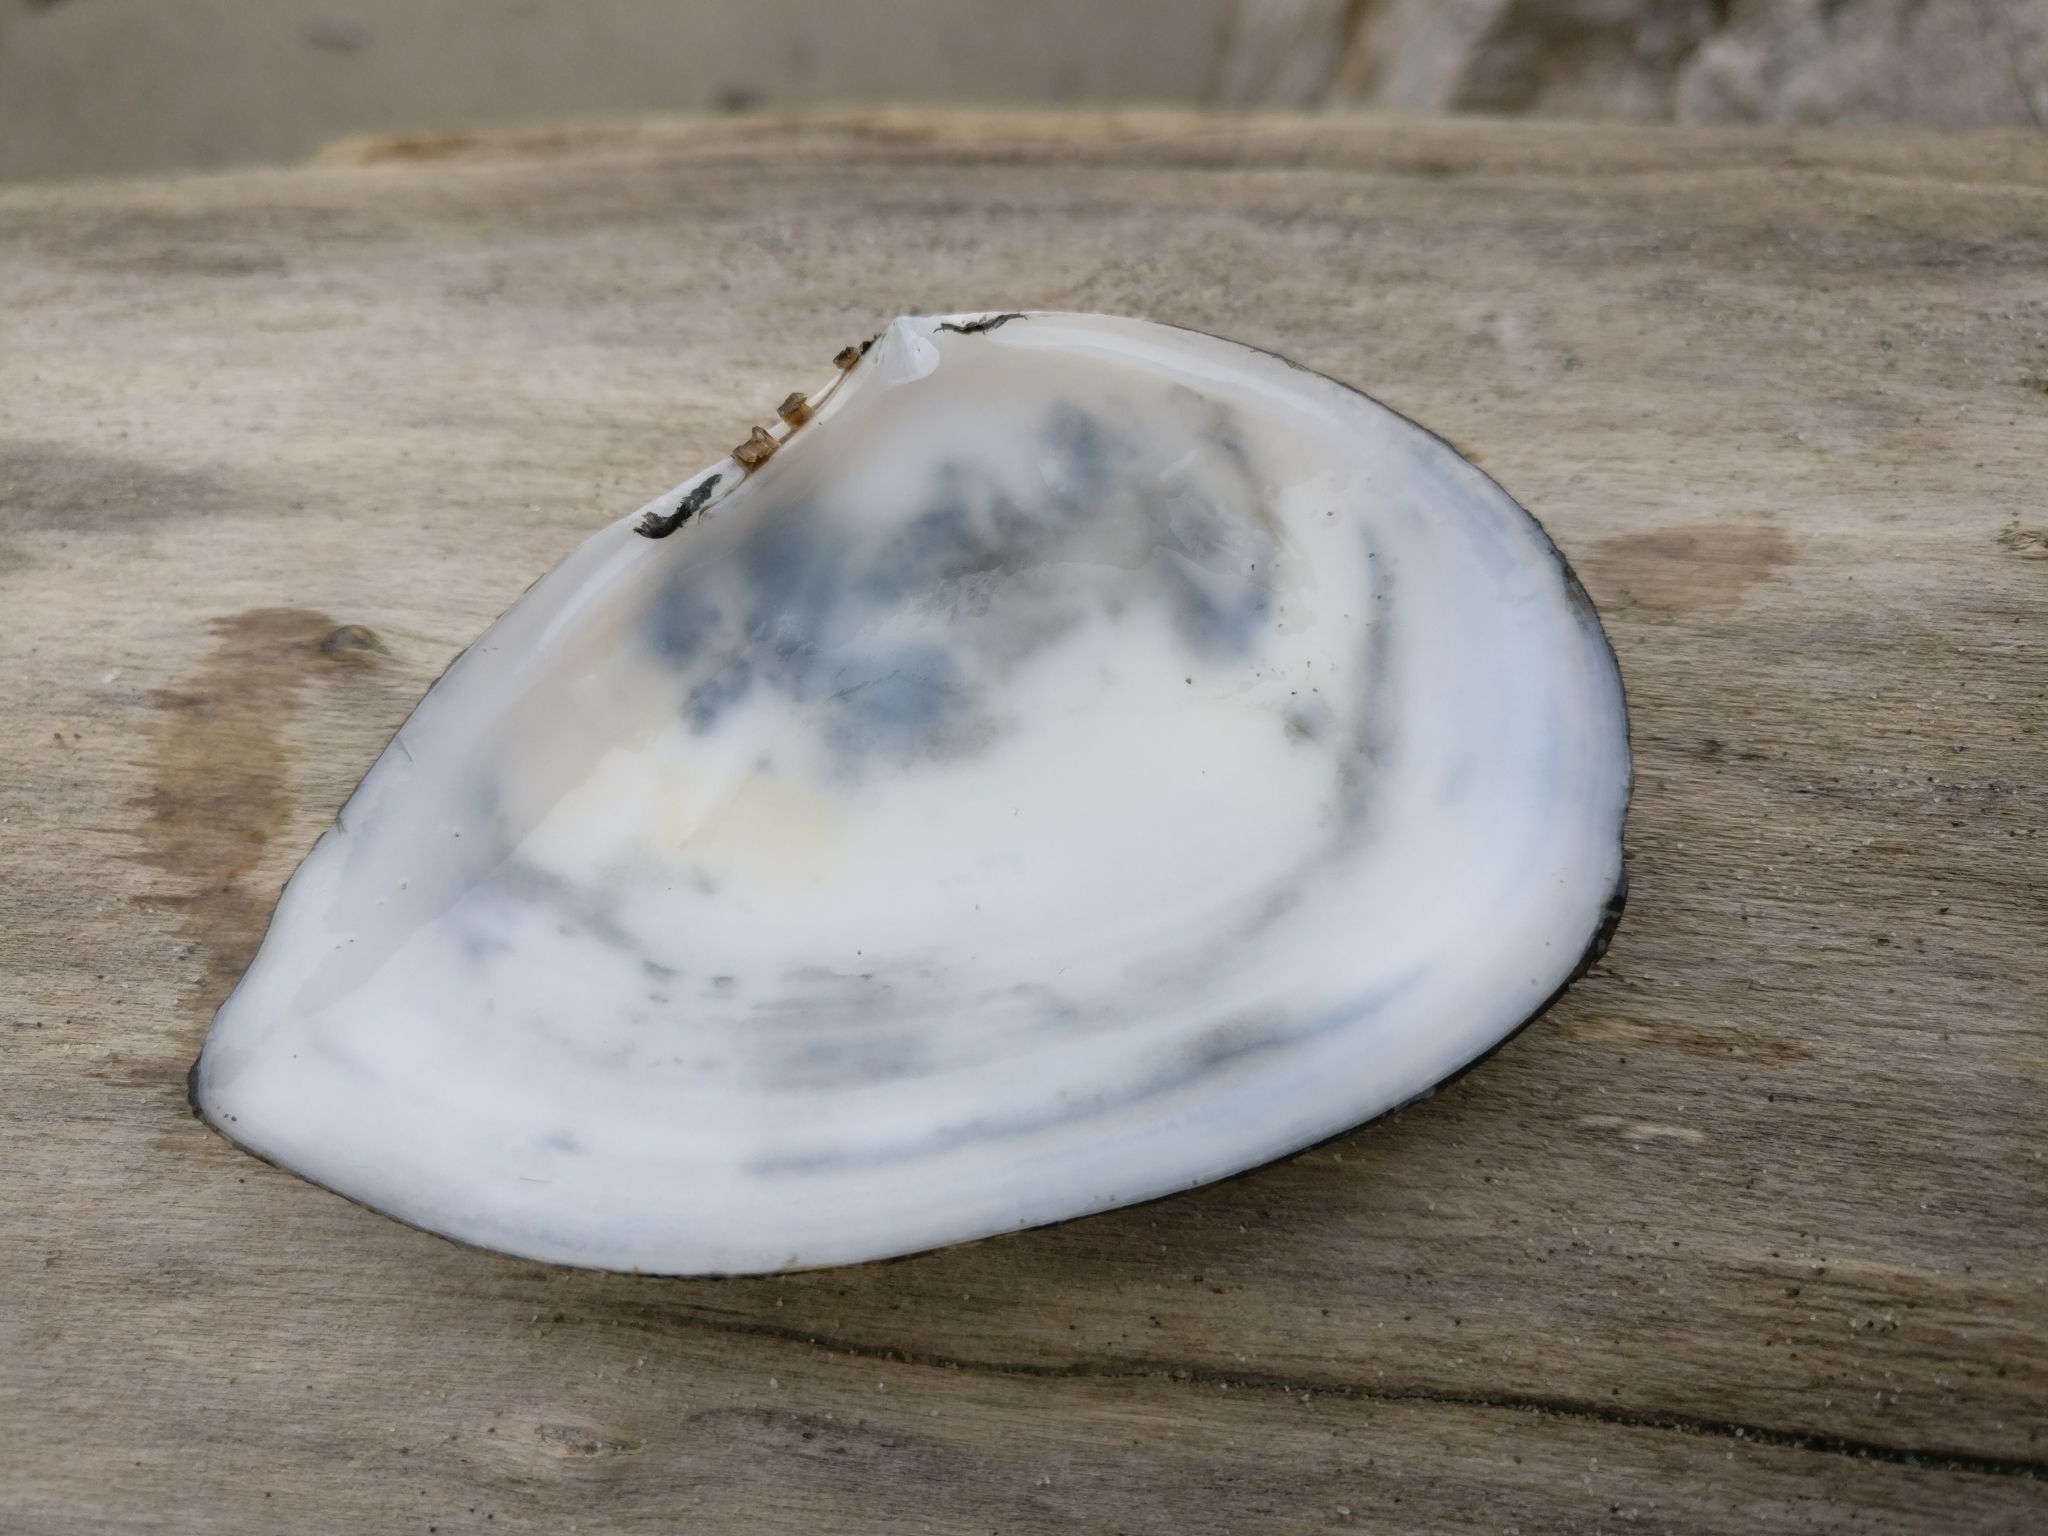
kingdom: Animalia
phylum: Mollusca
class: Bivalvia
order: Cardiida
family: Tellinidae
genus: Bartschicoma
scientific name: Bartschicoma gaimardi
